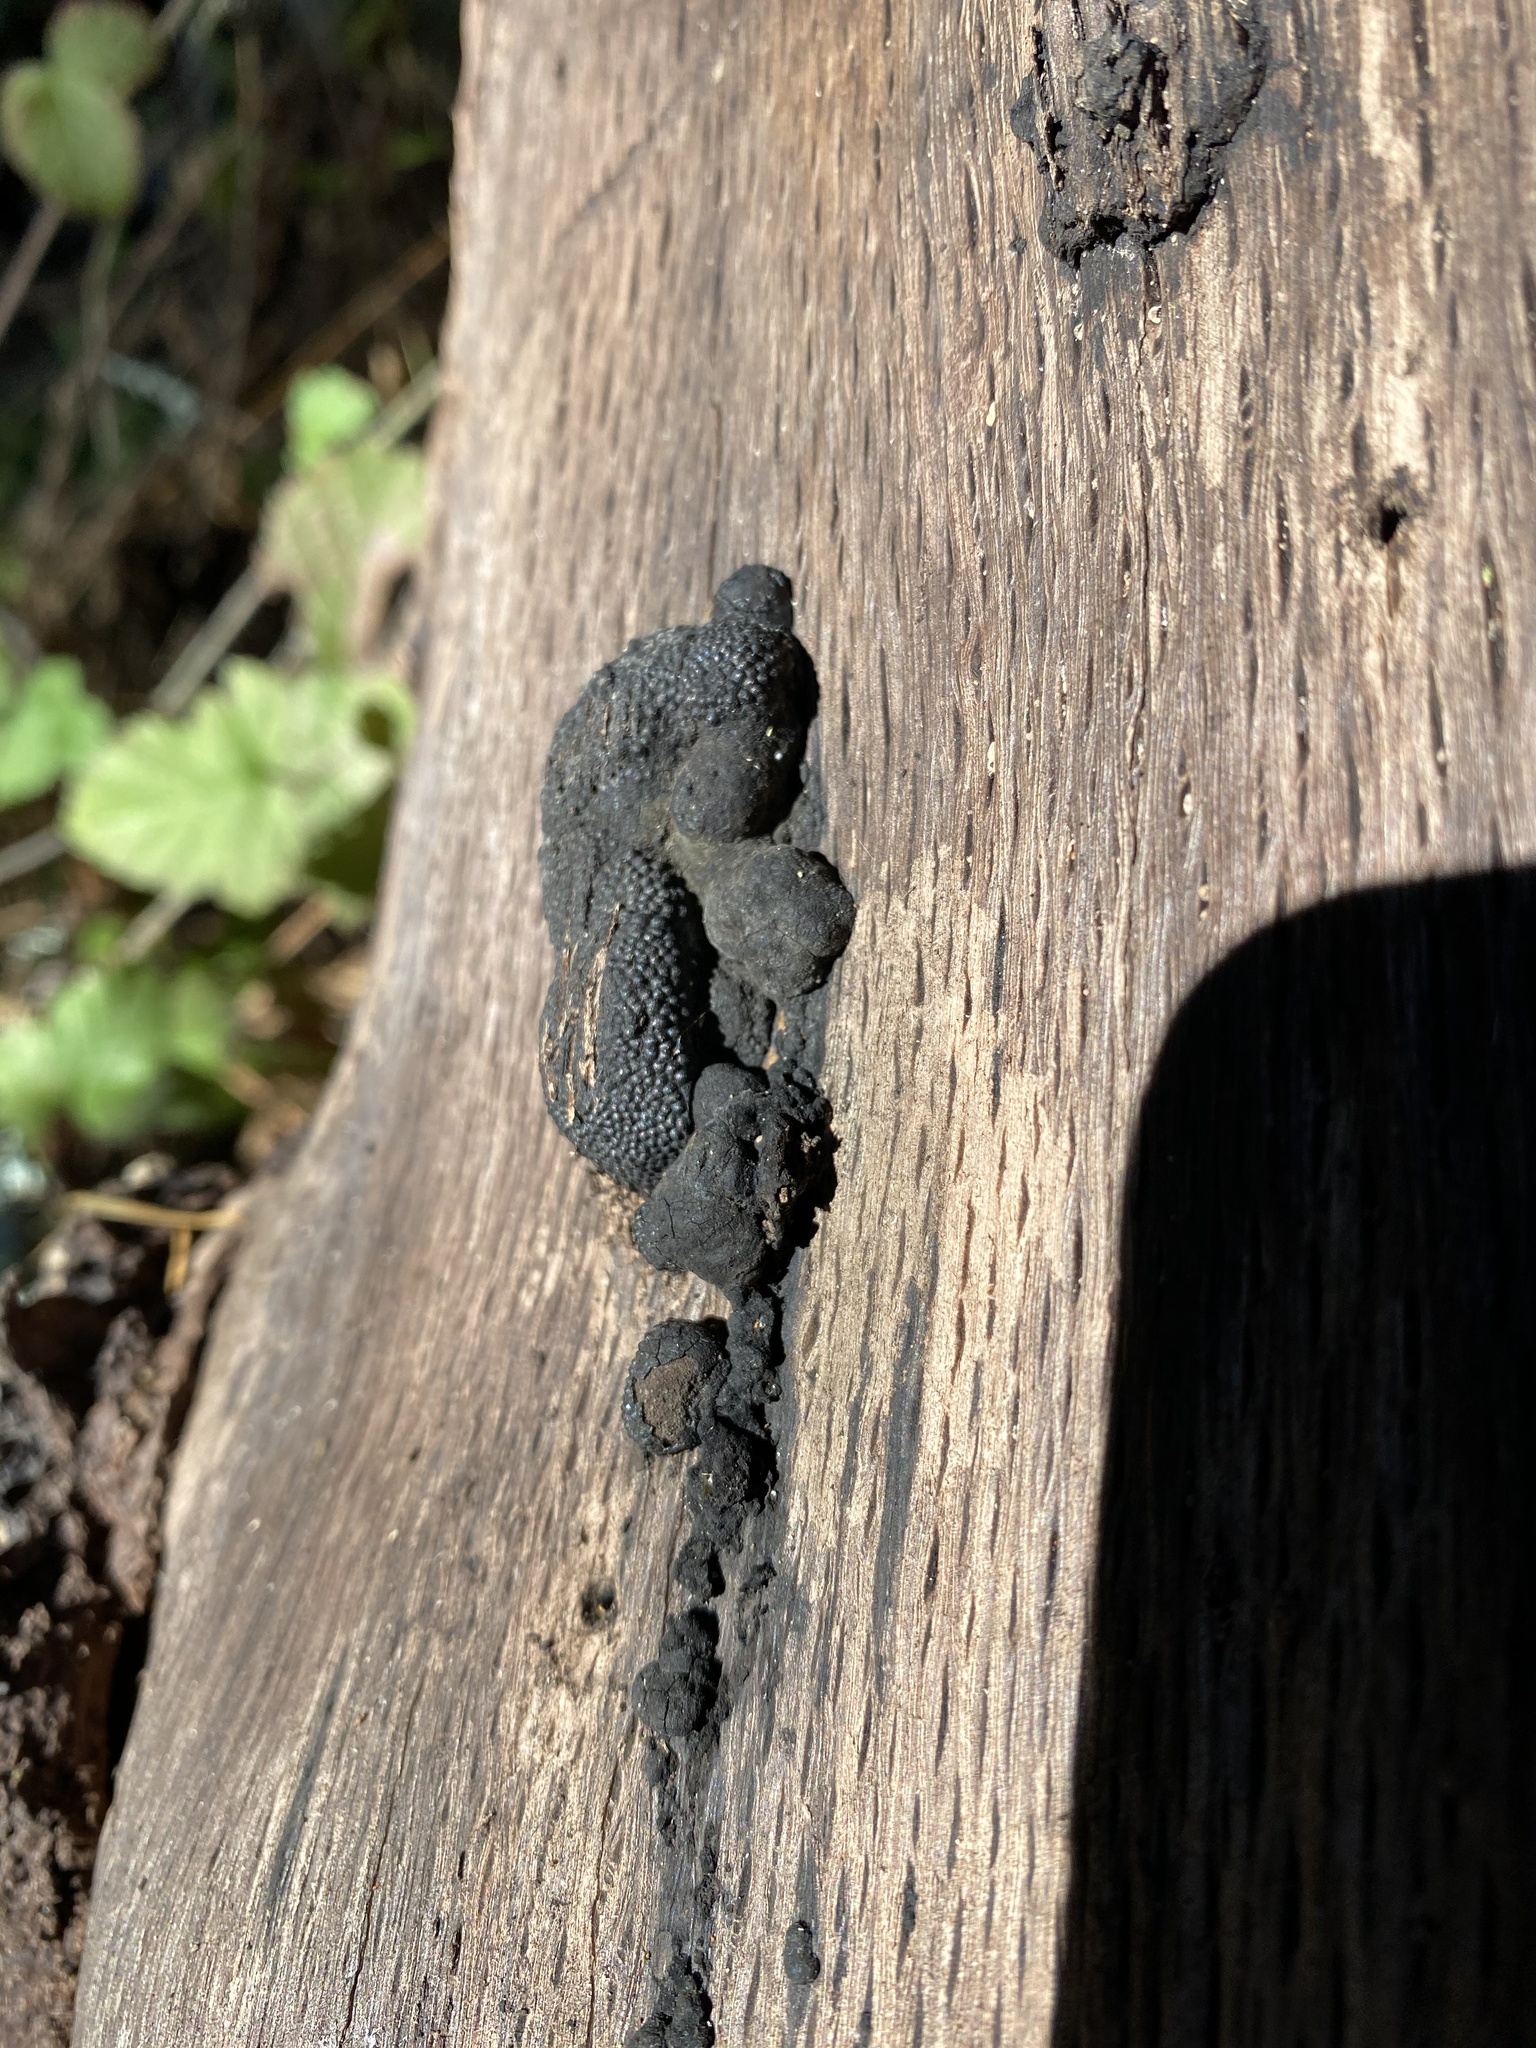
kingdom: Fungi
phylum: Ascomycota
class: Sordariomycetes
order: Xylariales
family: Hypoxylaceae
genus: Annulohypoxylon
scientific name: Annulohypoxylon thouarsianum
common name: Cramp balls
